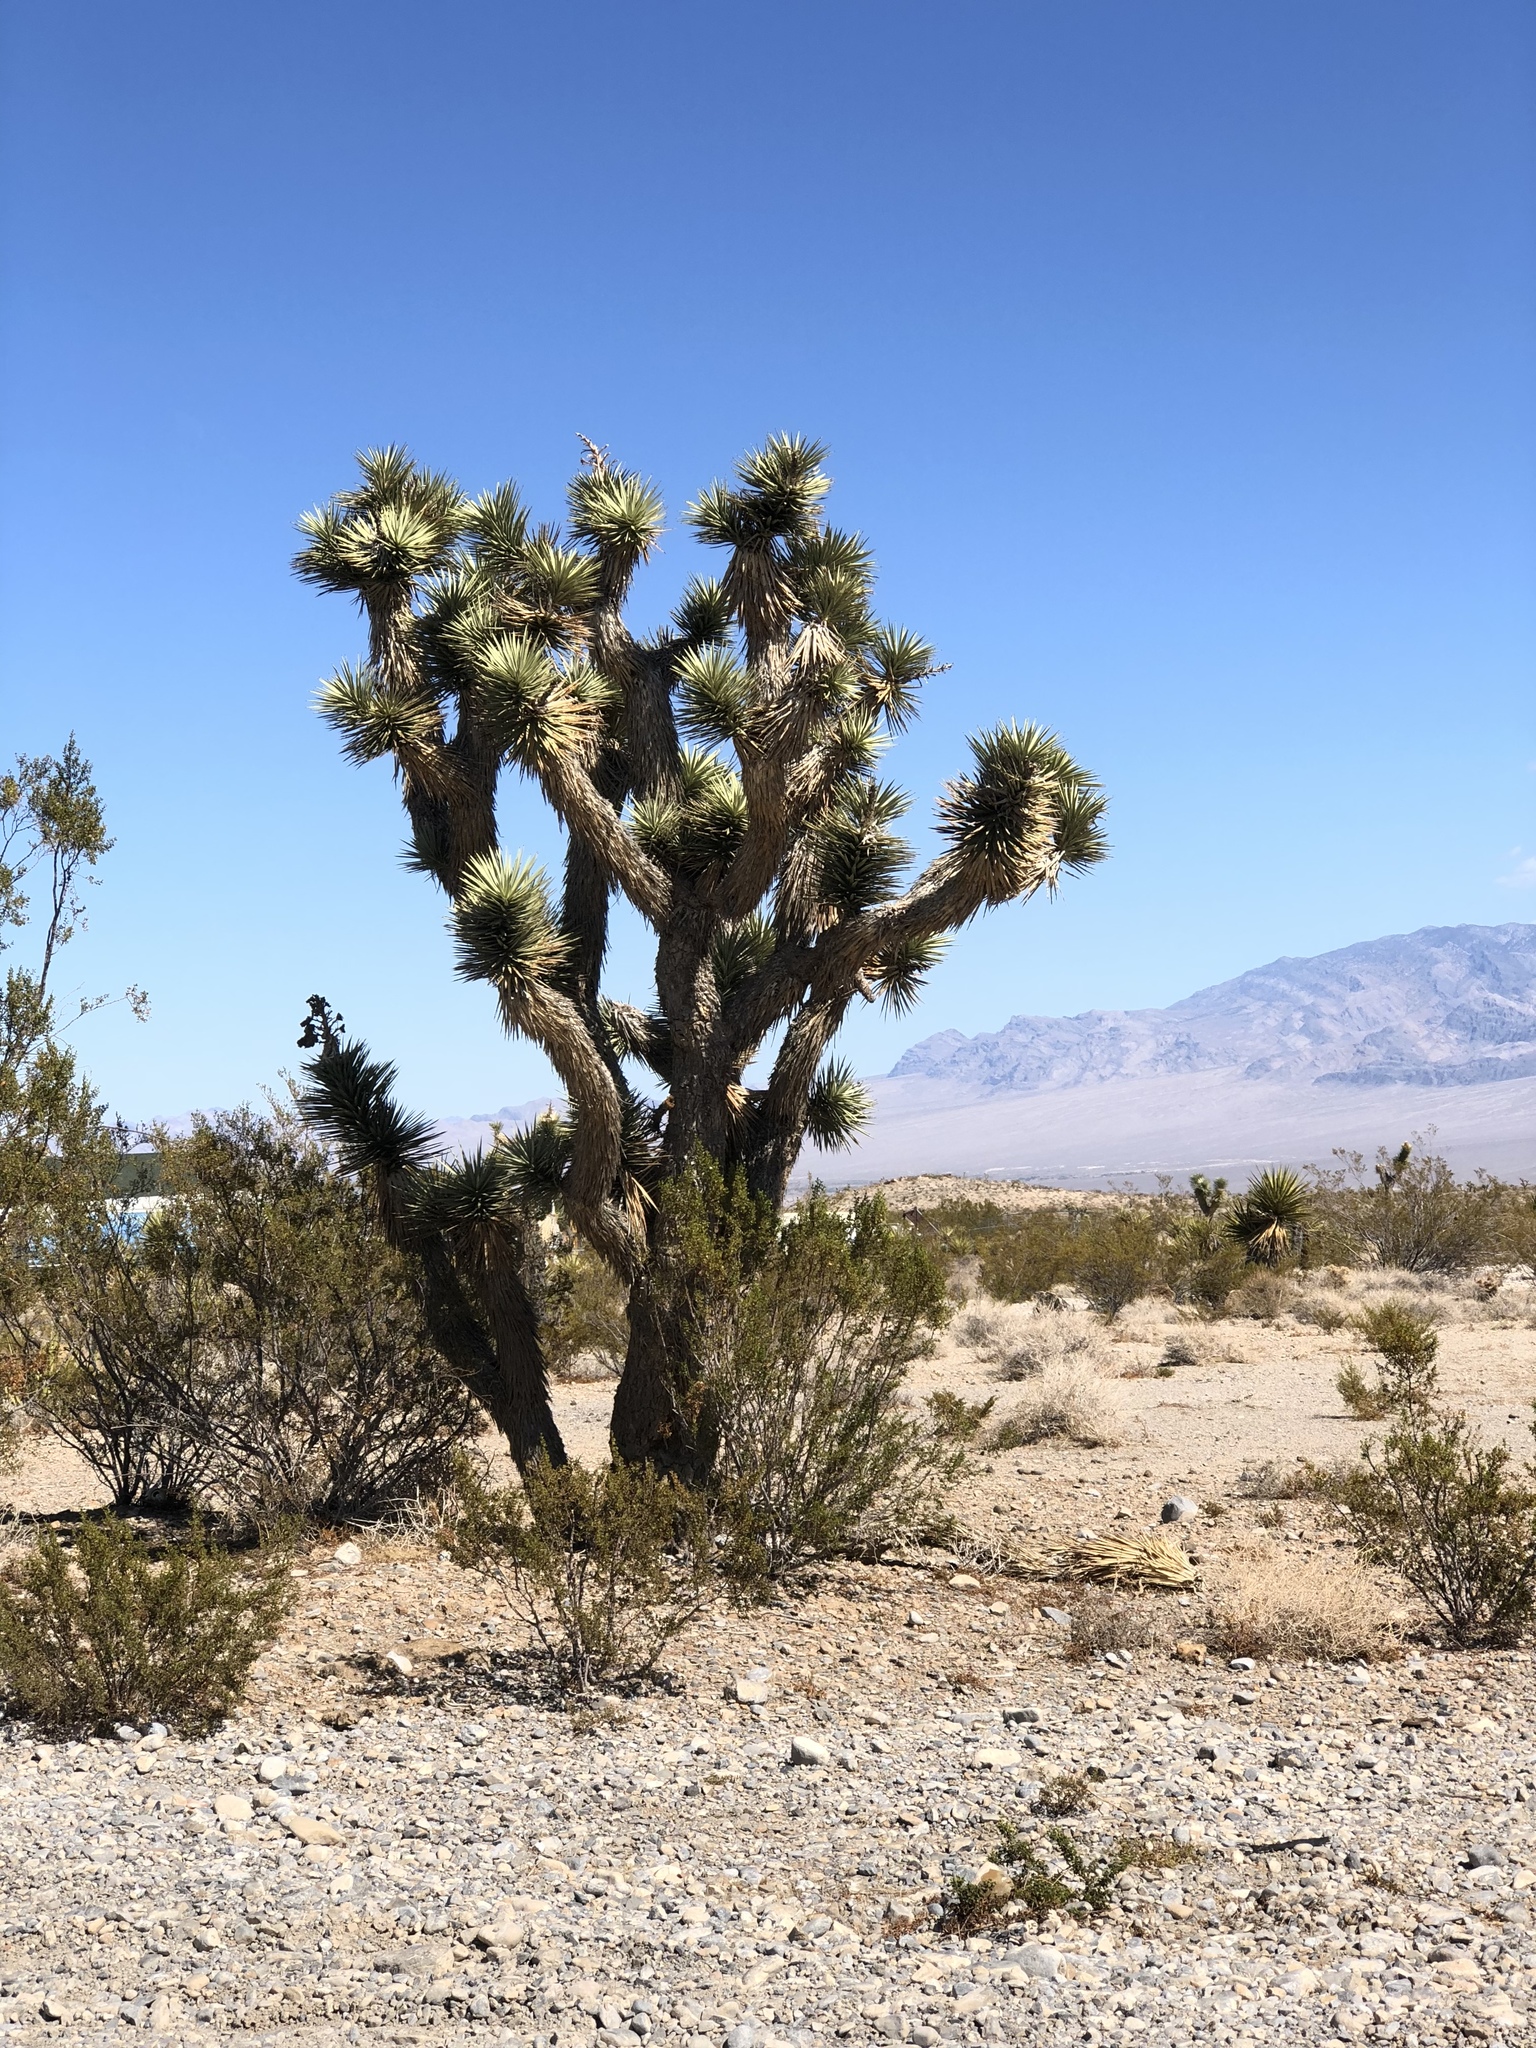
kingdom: Plantae
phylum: Tracheophyta
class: Liliopsida
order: Asparagales
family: Asparagaceae
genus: Yucca
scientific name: Yucca brevifolia
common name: Joshua tree
